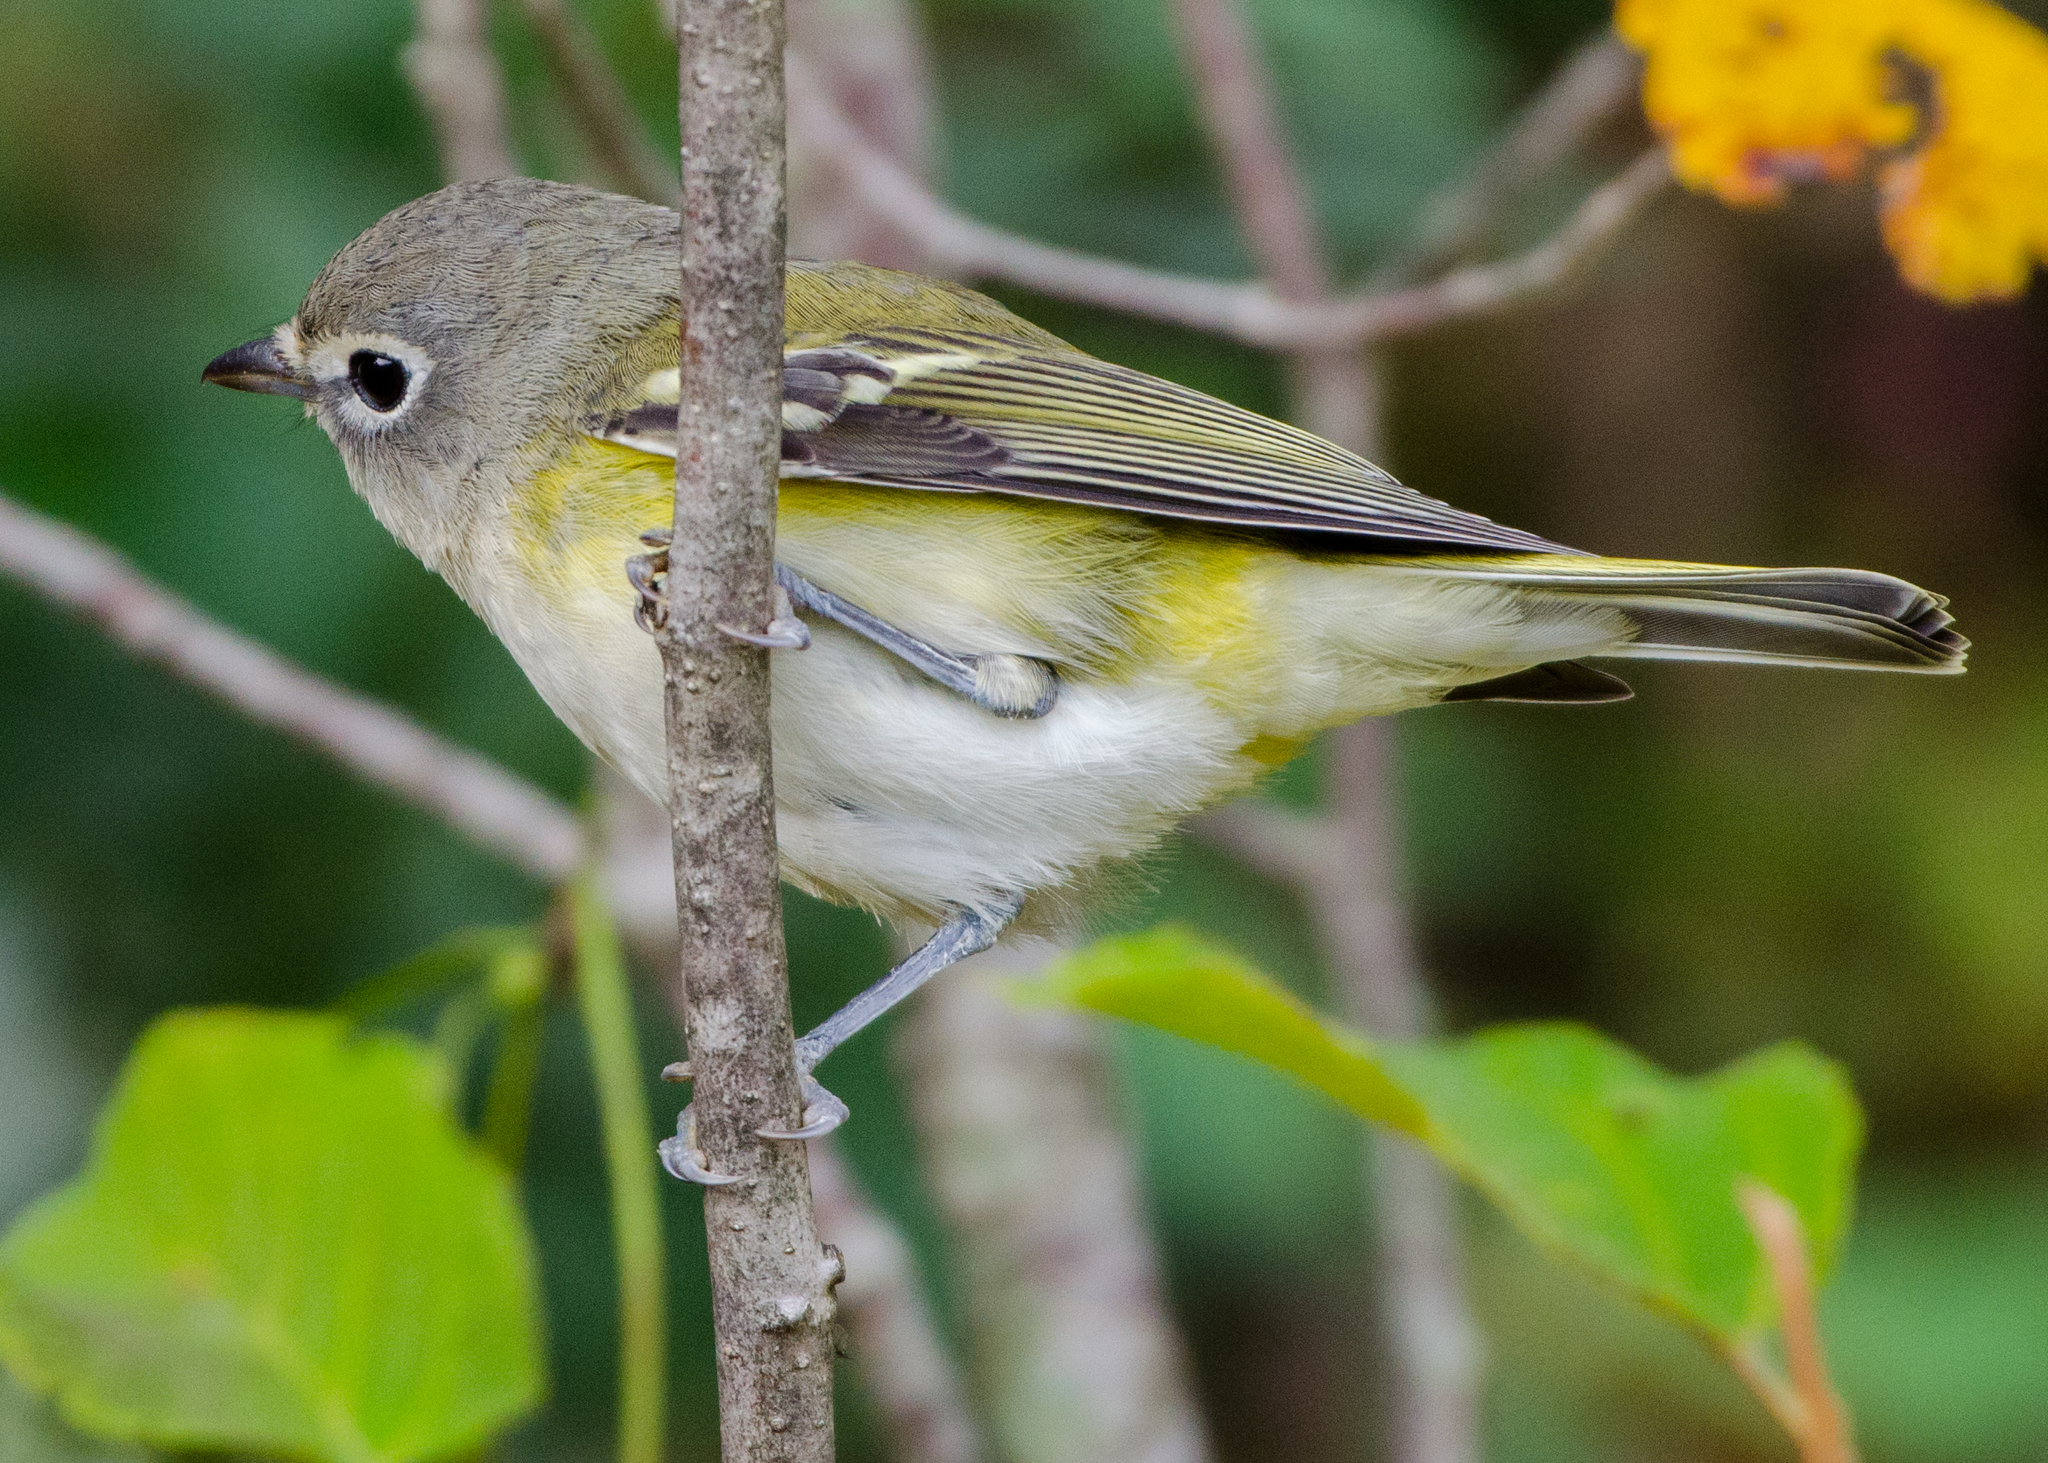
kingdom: Animalia
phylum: Chordata
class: Aves
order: Passeriformes
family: Vireonidae
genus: Vireo
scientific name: Vireo solitarius
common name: Blue-headed vireo
